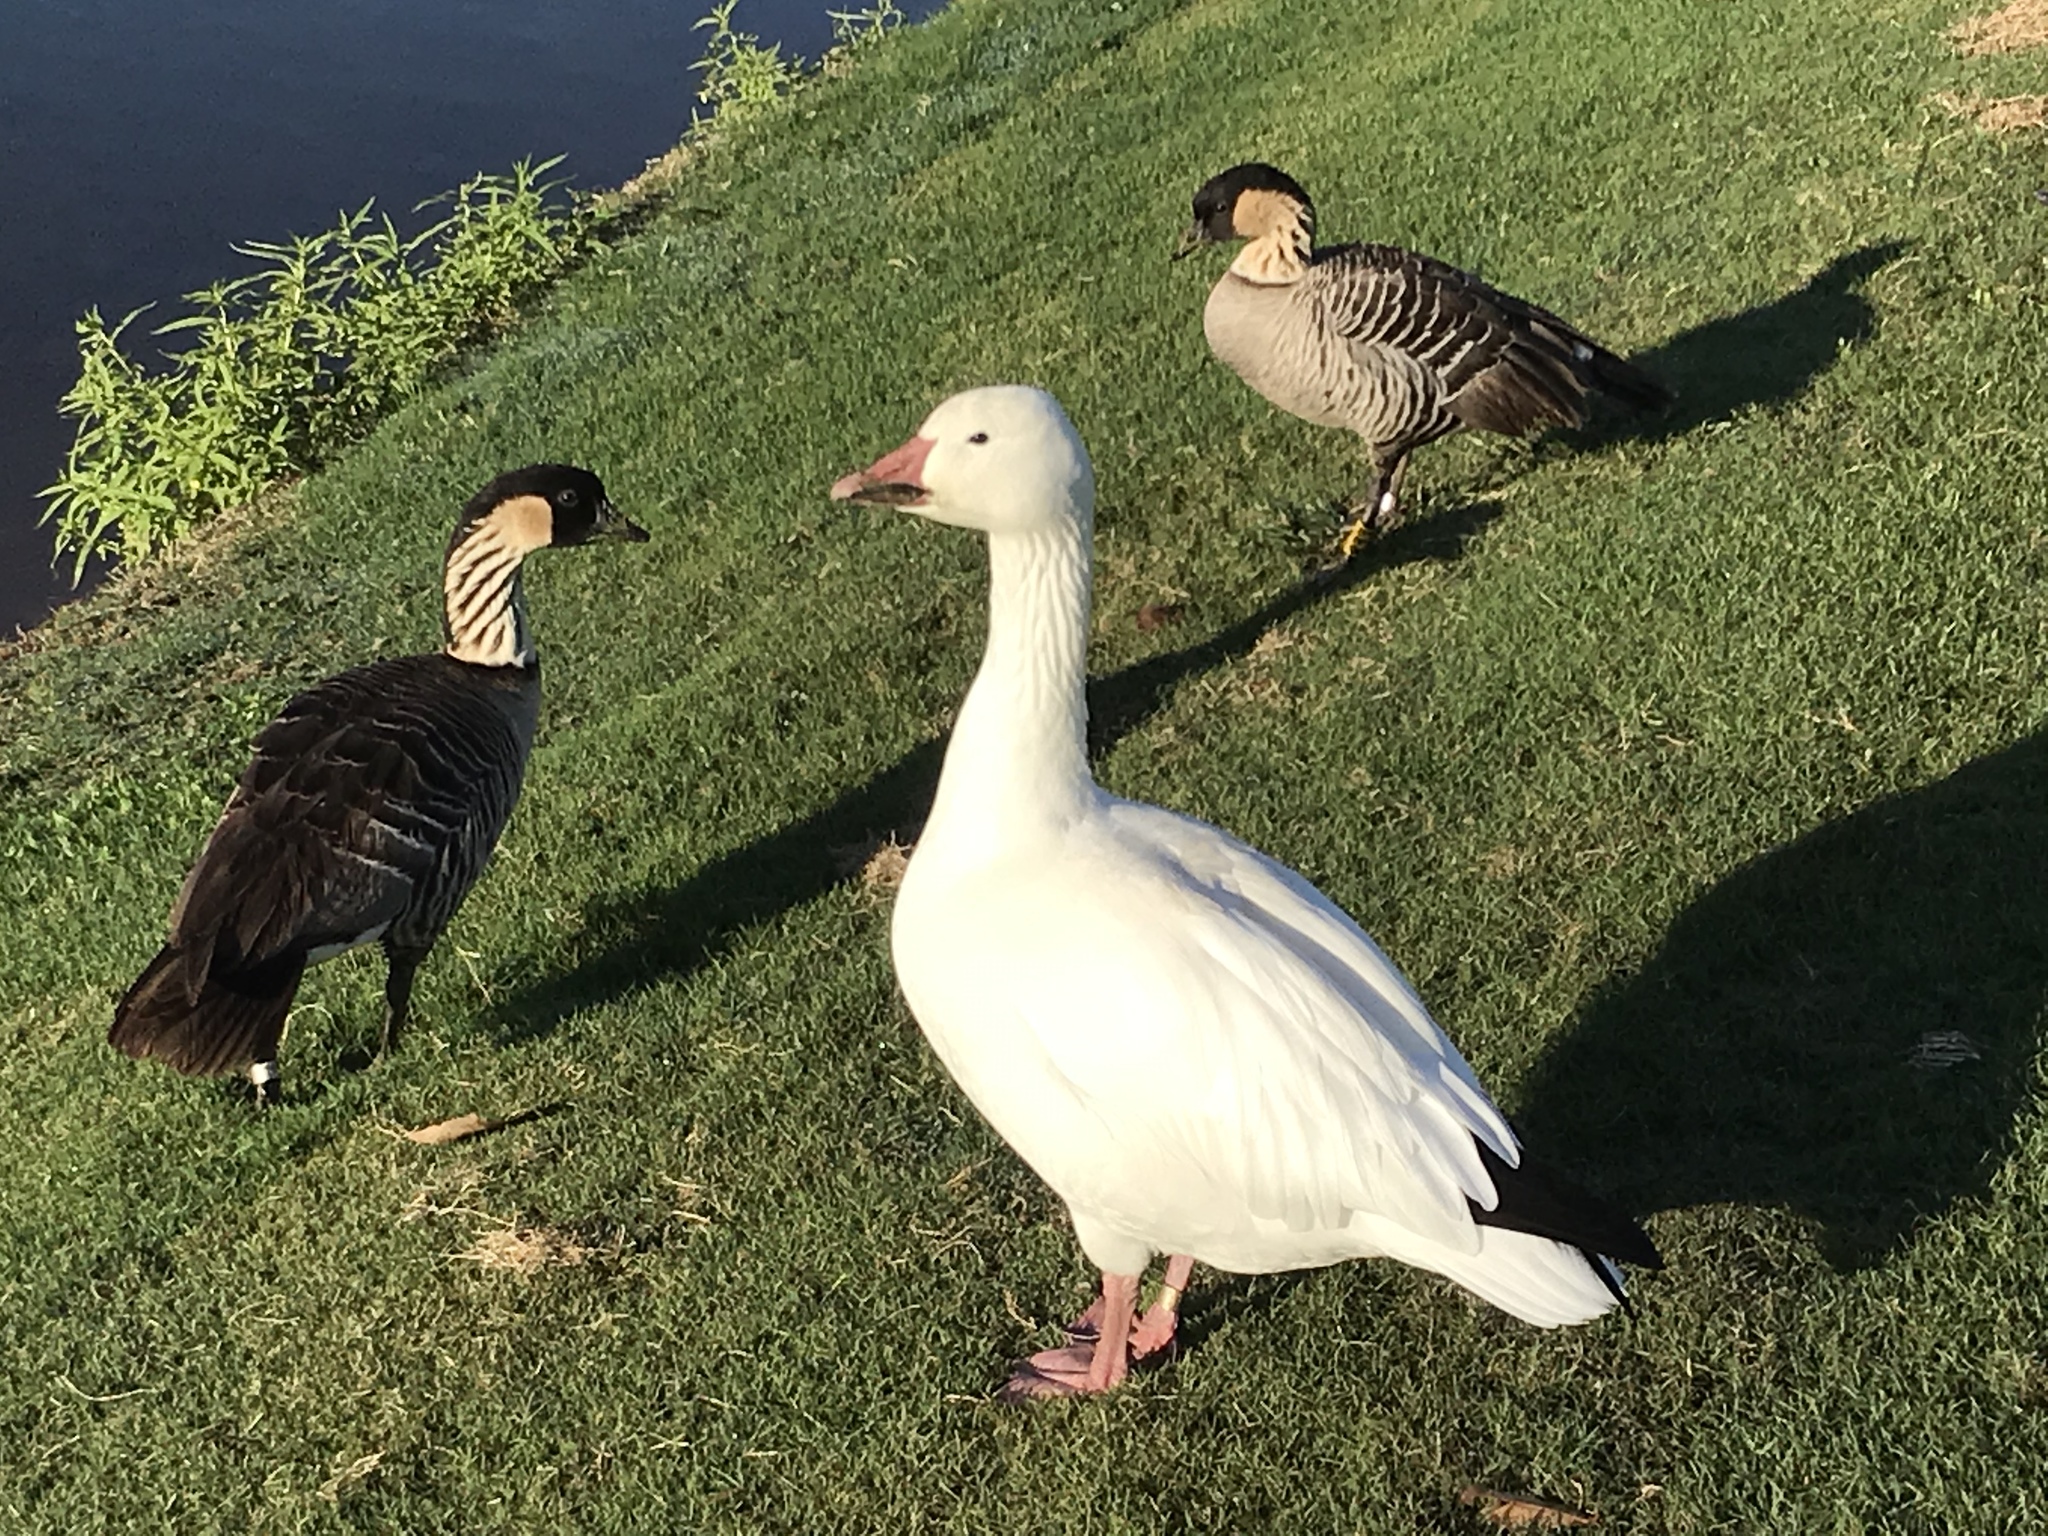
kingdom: Animalia
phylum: Chordata
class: Aves
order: Anseriformes
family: Anatidae
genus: Anser
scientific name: Anser caerulescens
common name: Snow goose
